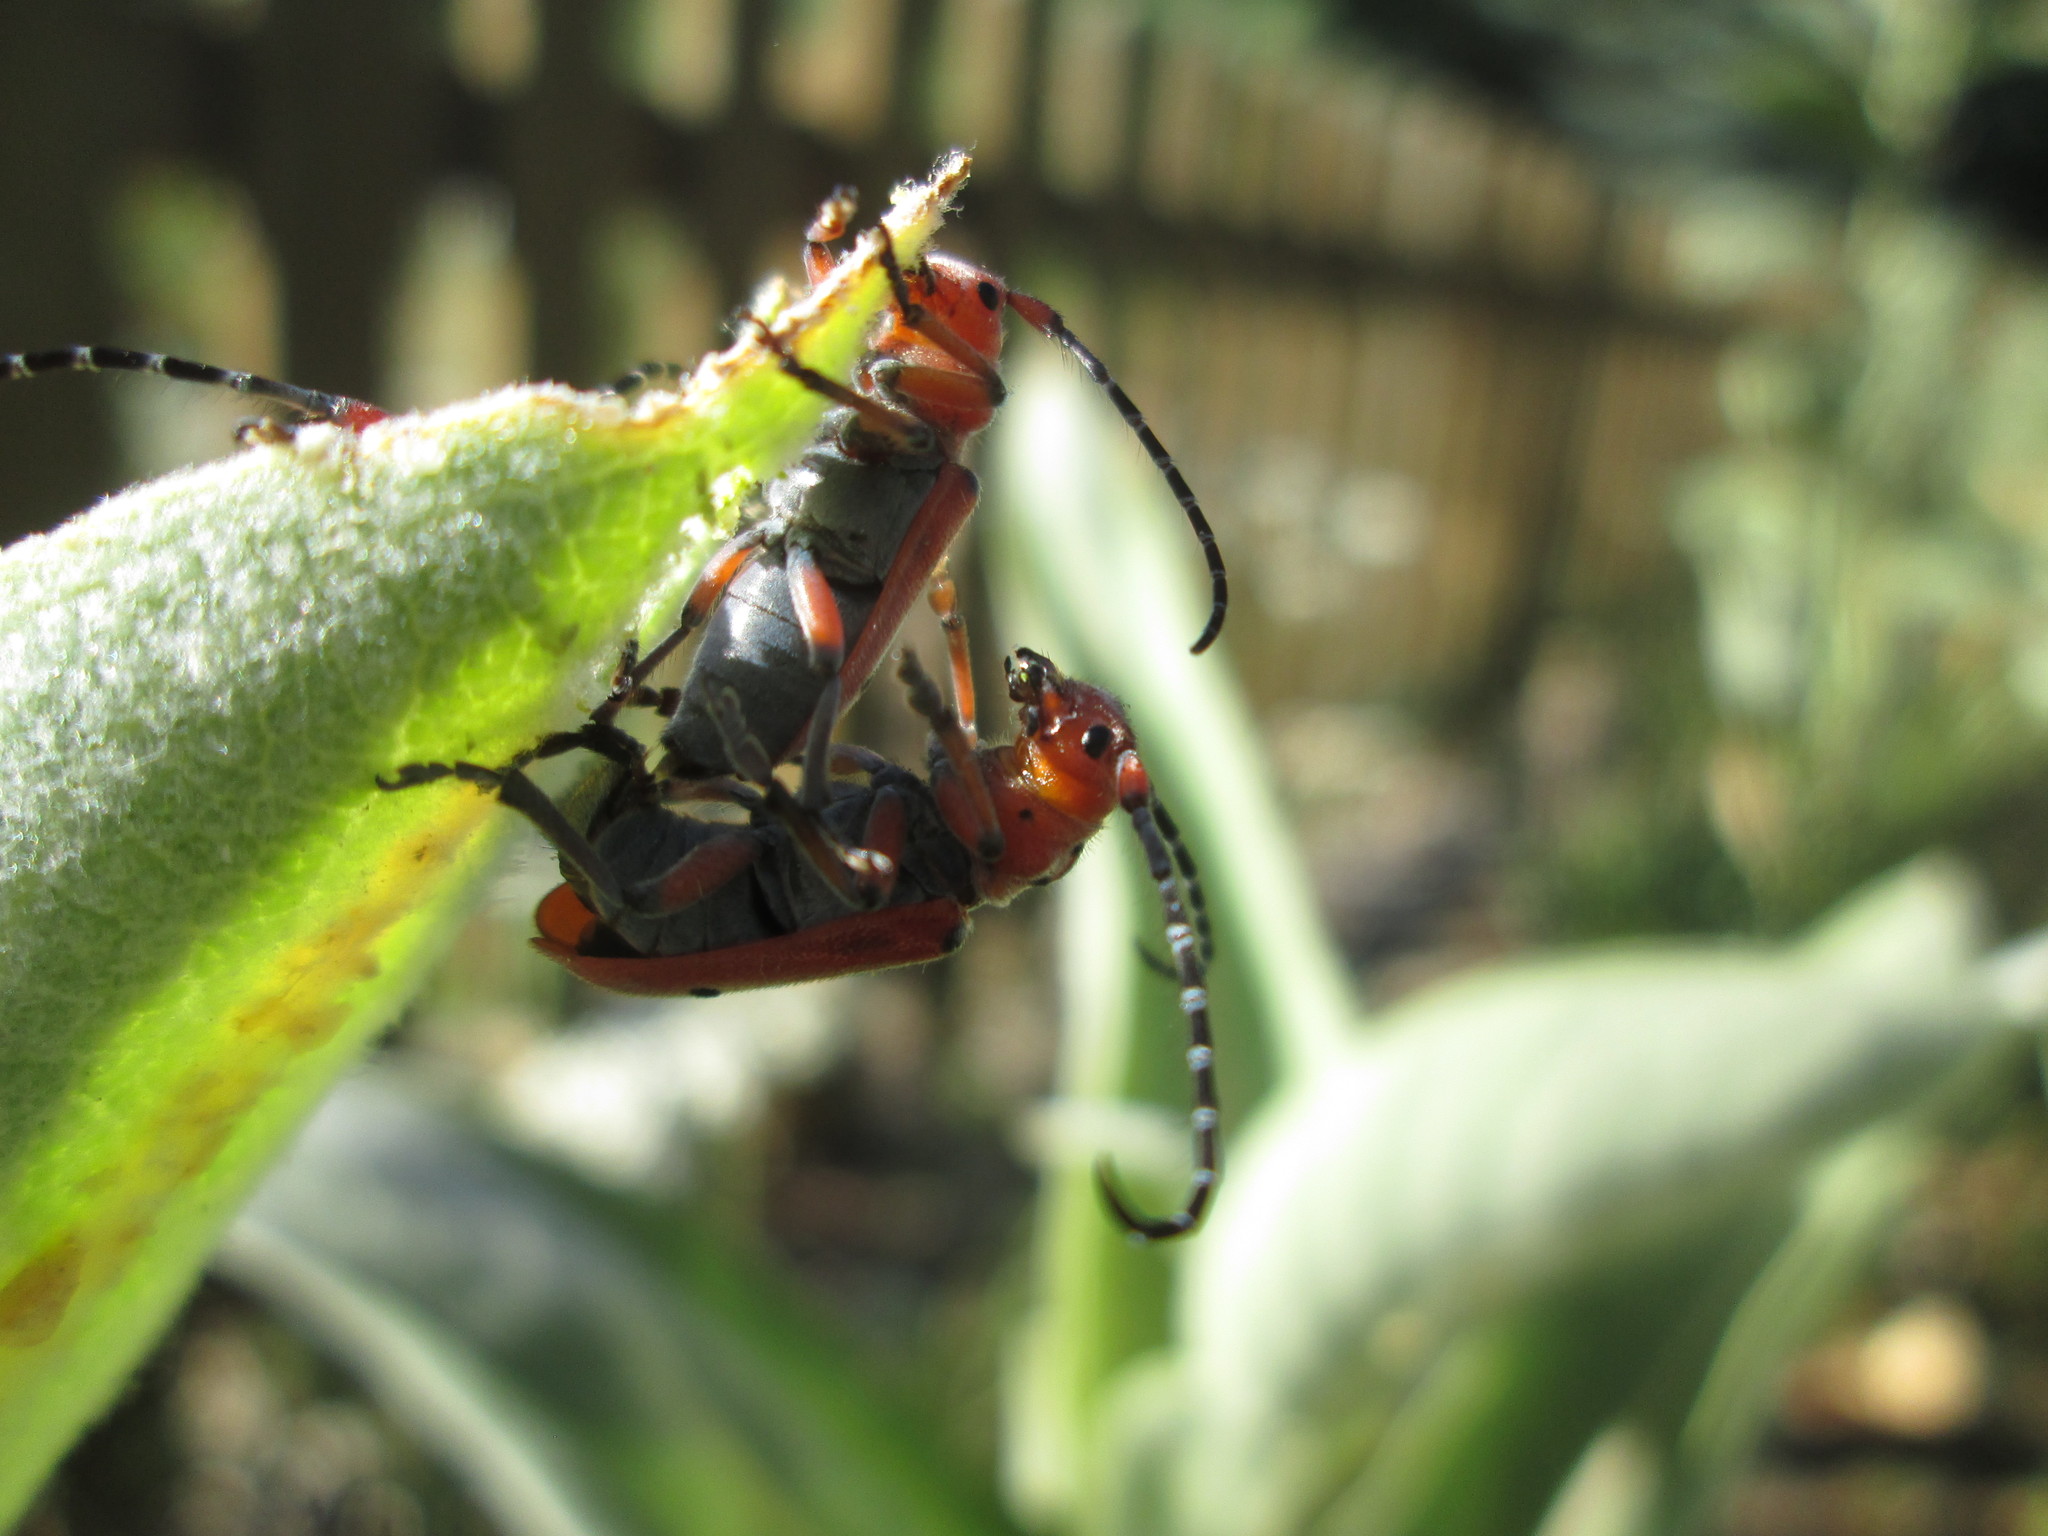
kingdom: Animalia
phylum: Arthropoda
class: Insecta
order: Coleoptera
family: Cerambycidae
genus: Tetraopes
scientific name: Tetraopes femoratus
